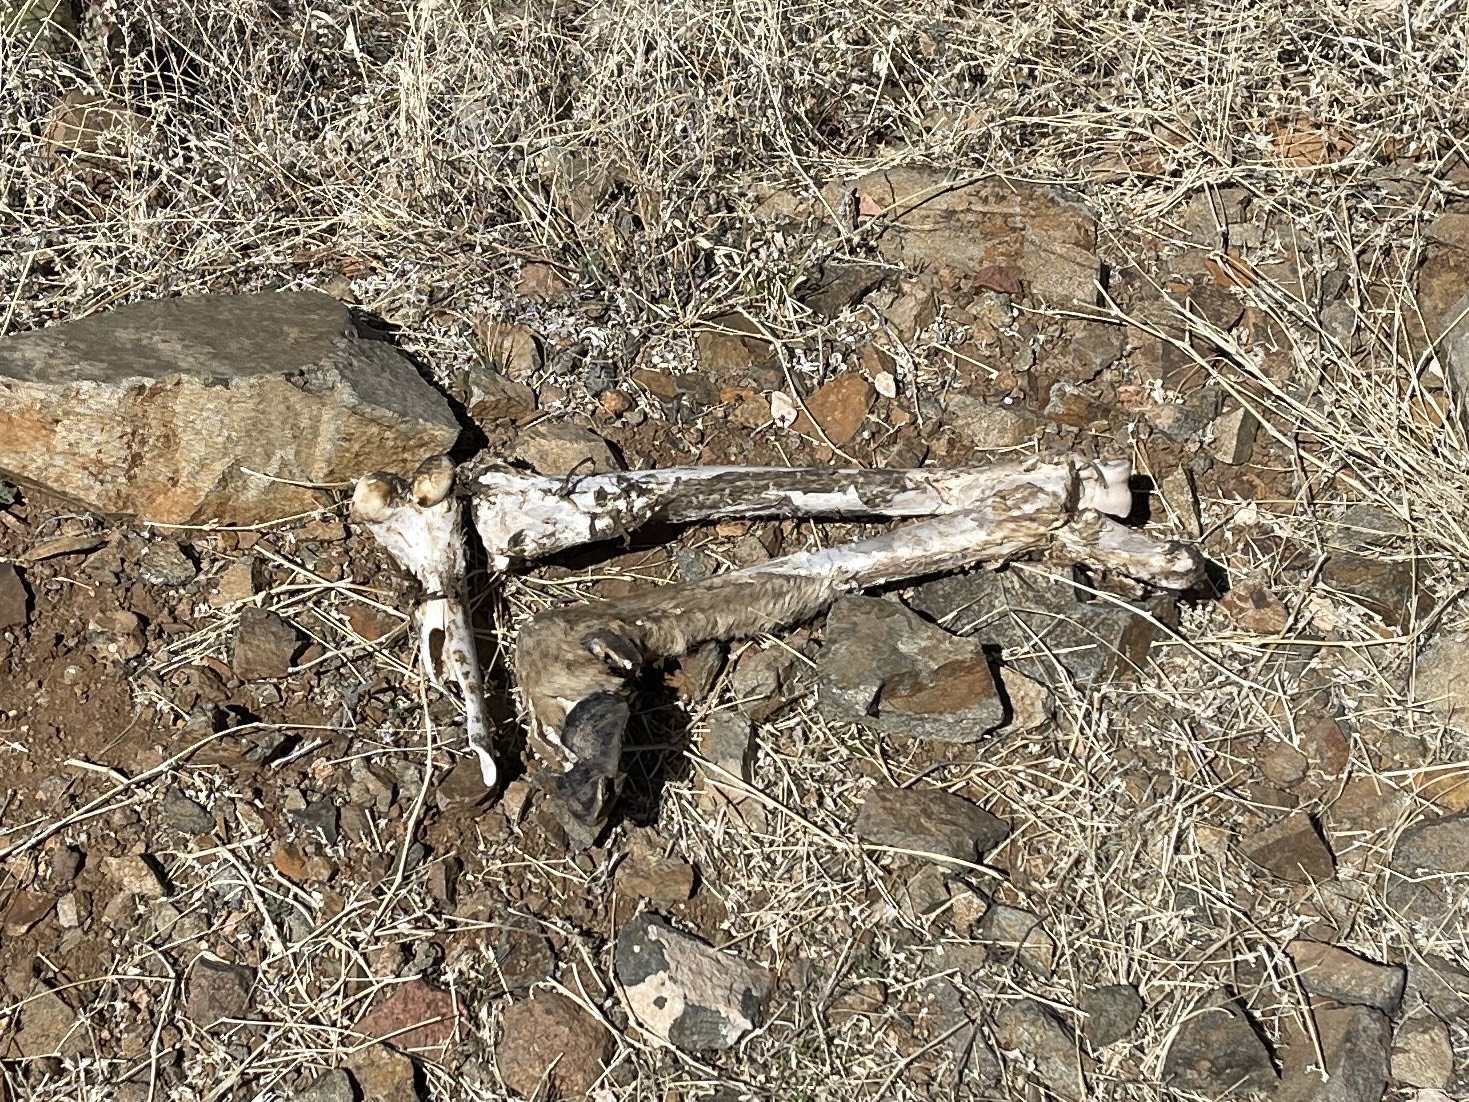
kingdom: Animalia
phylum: Chordata
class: Mammalia
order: Artiodactyla
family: Cervidae
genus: Odocoileus
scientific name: Odocoileus hemionus
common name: Mule deer
